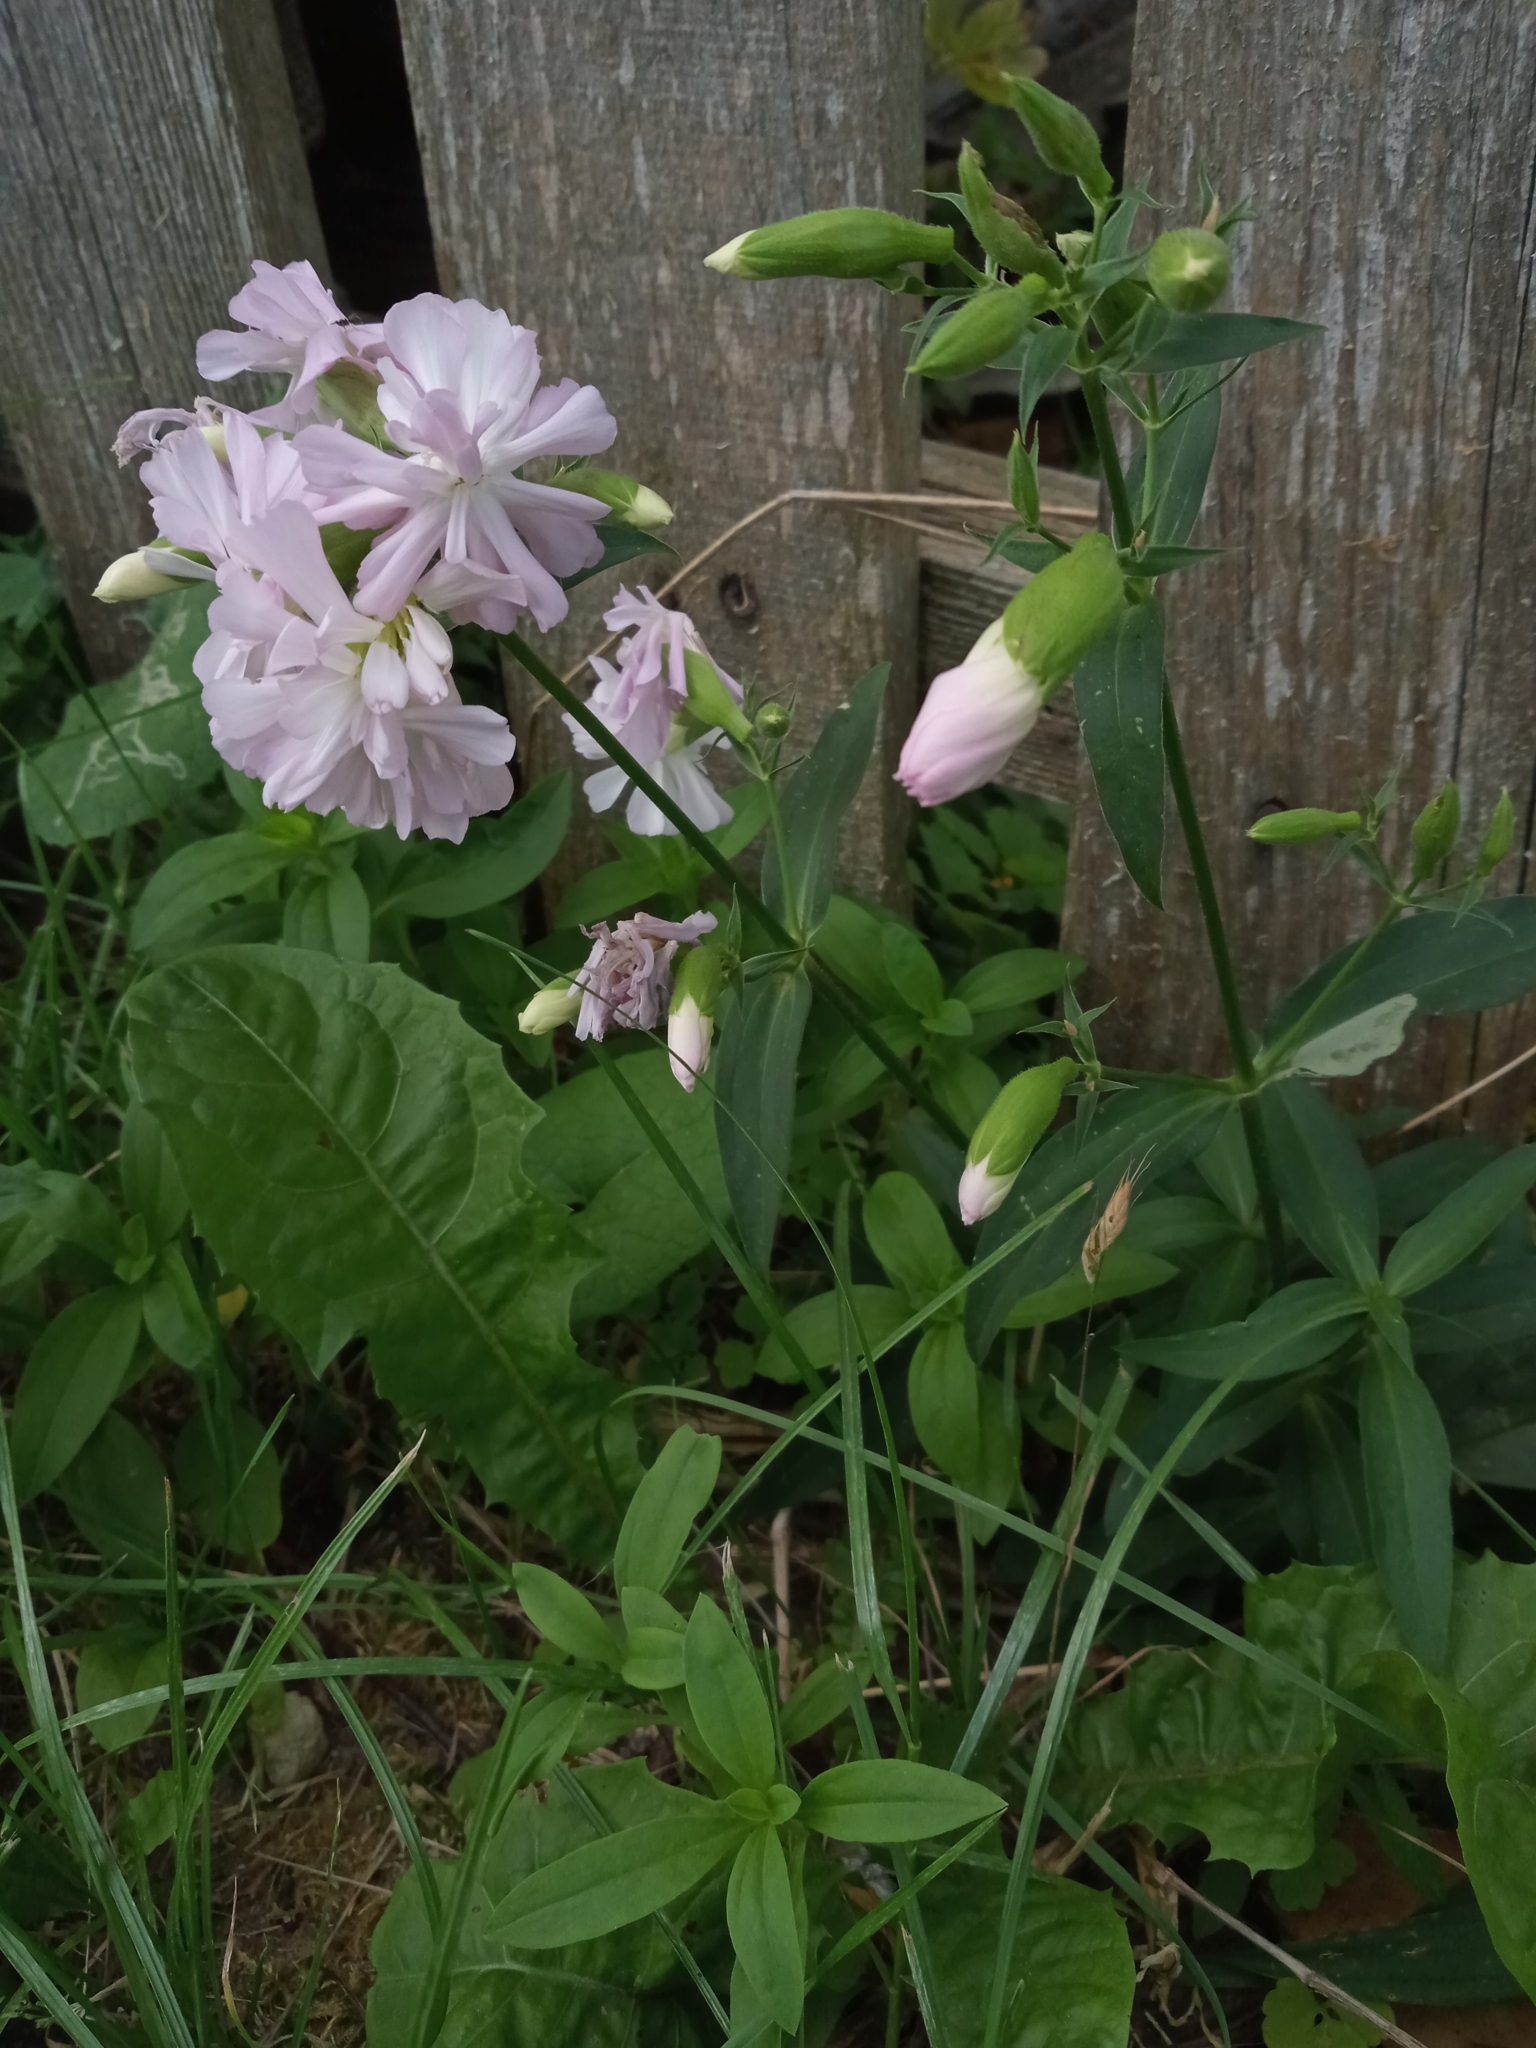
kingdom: Plantae
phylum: Tracheophyta
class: Magnoliopsida
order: Caryophyllales
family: Caryophyllaceae
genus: Saponaria
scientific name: Saponaria officinalis
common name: Soapwort
